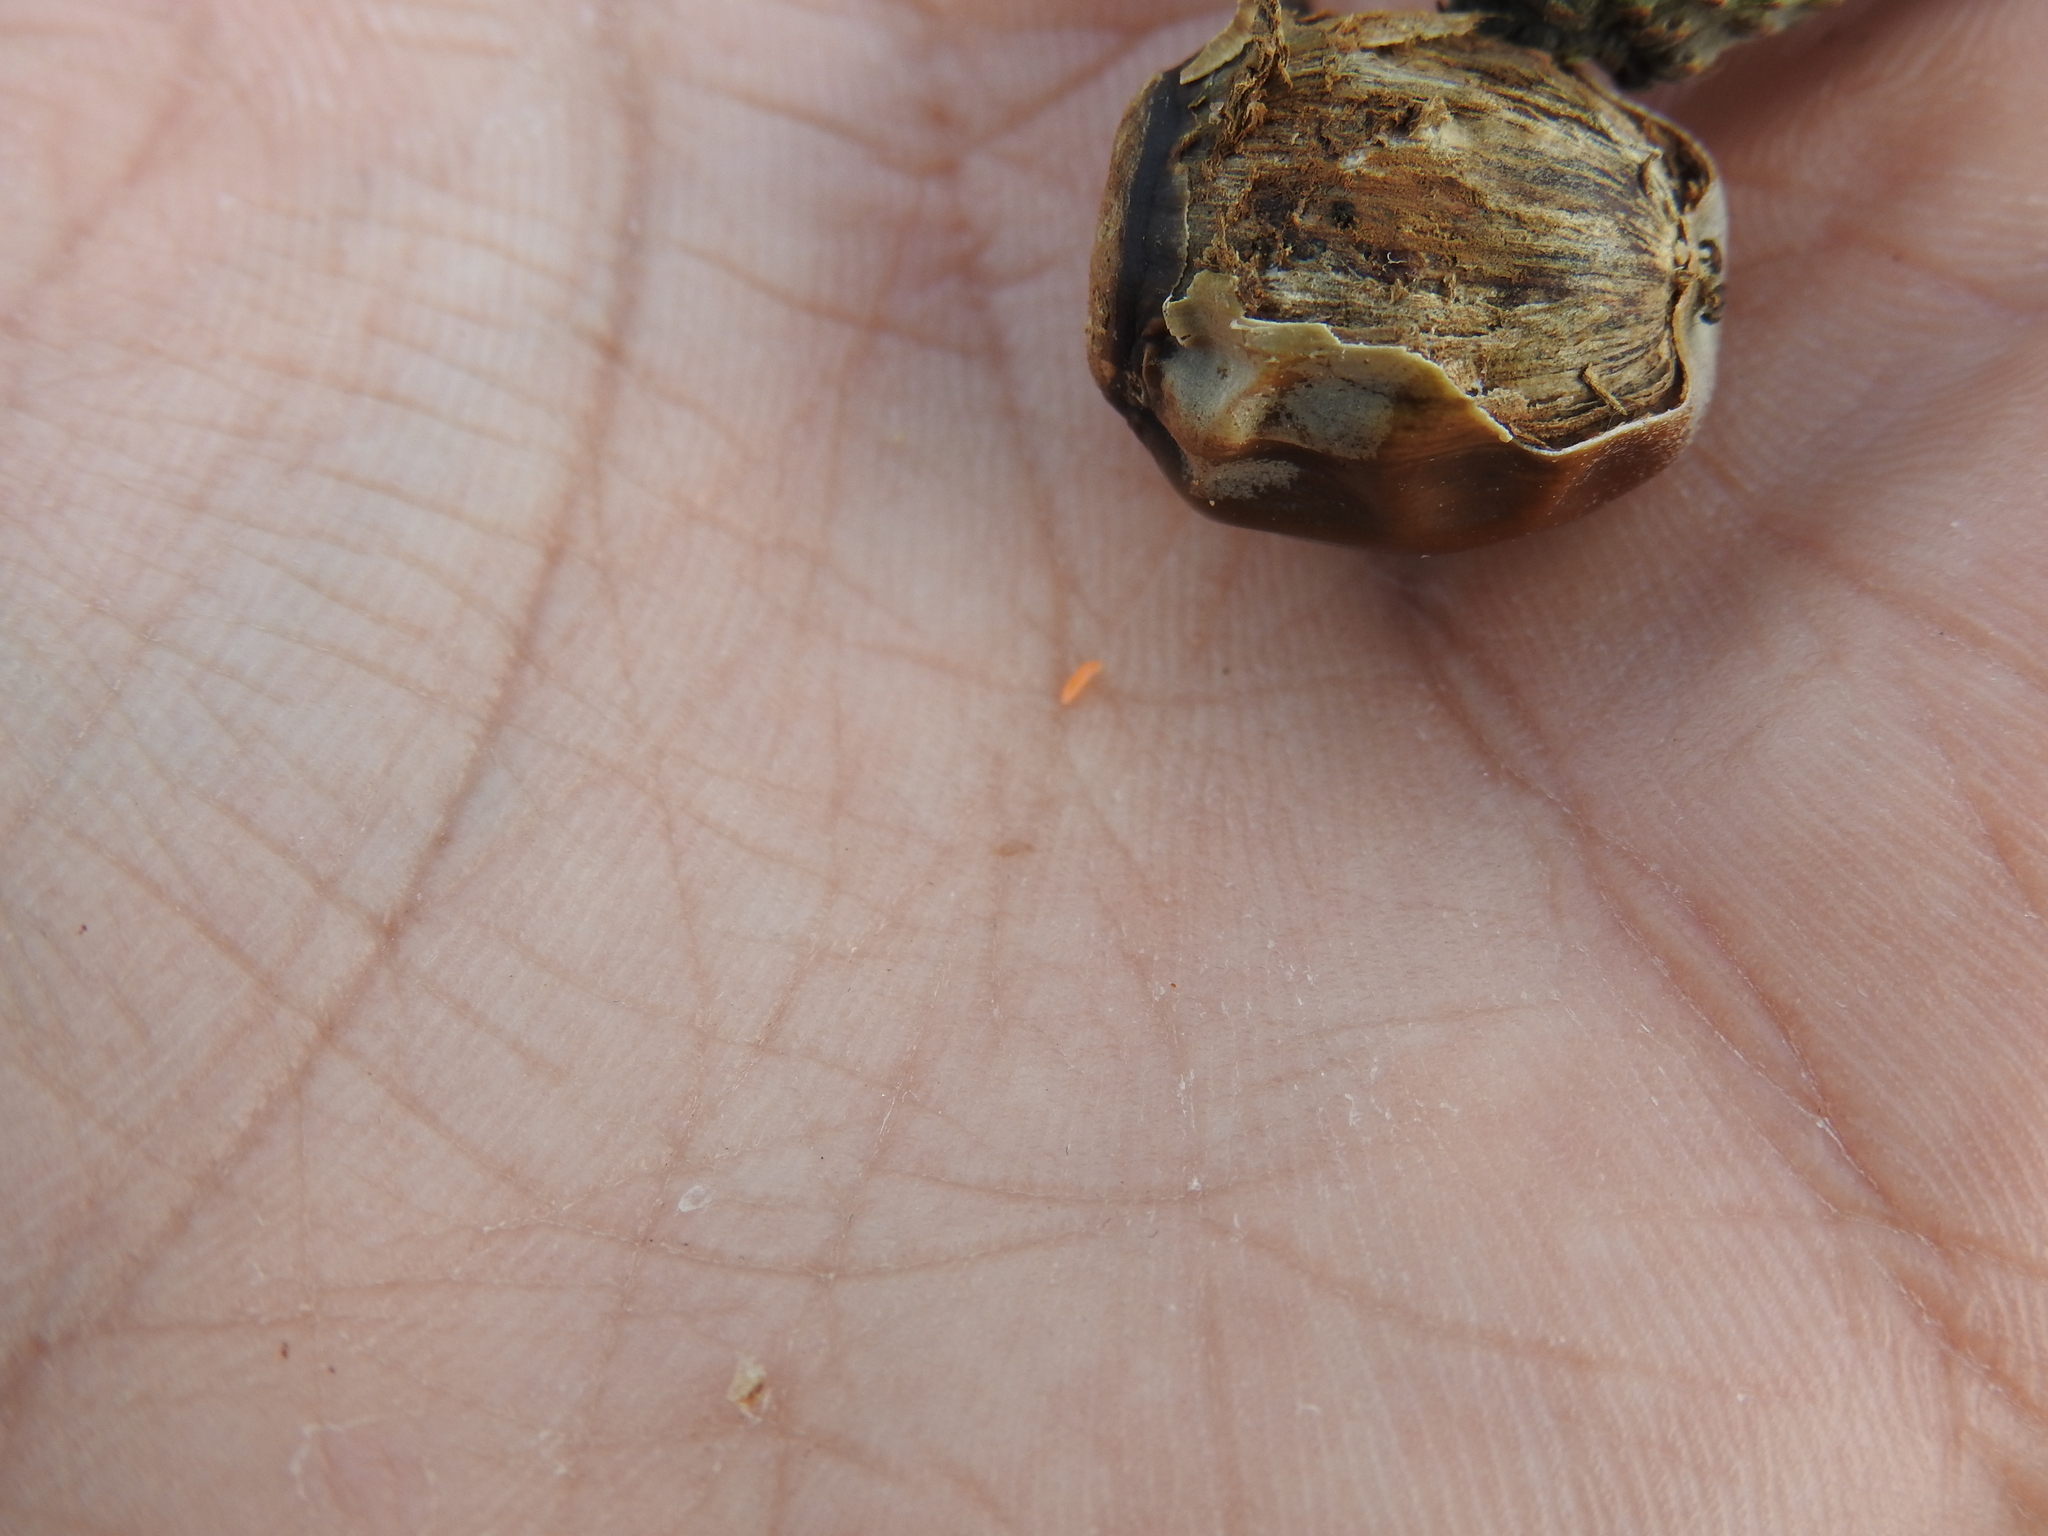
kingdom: Animalia
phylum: Arthropoda
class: Insecta
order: Diptera
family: Cecidomyiidae
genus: Clinodiplosis
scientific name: Clinodiplosis cilicrus
